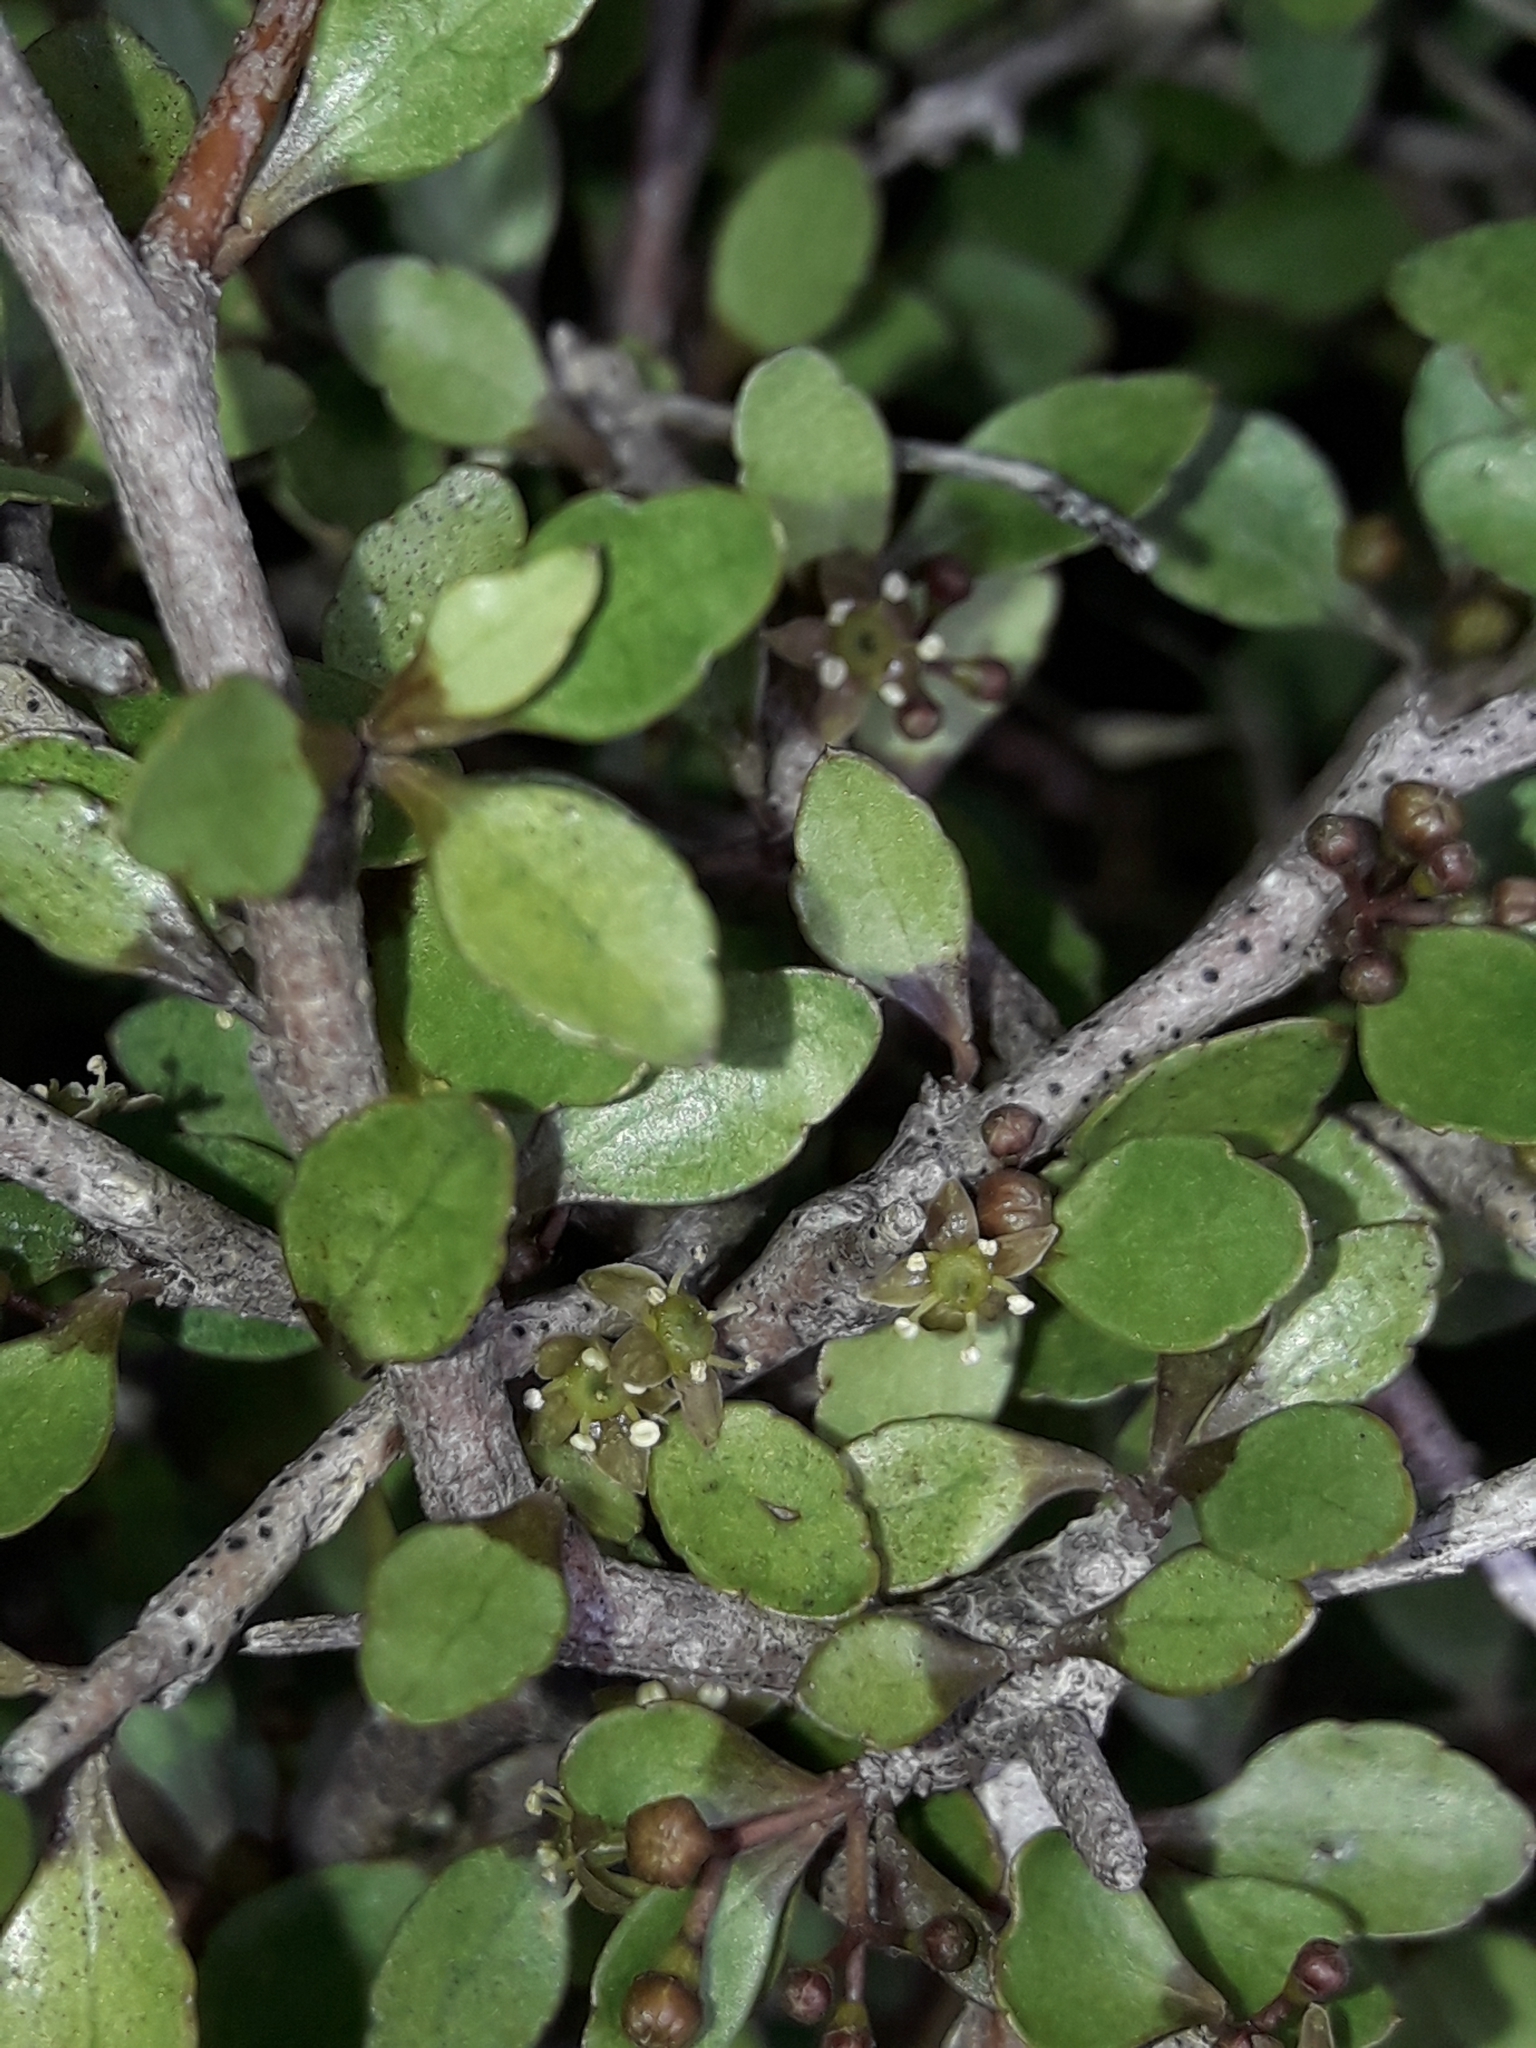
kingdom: Plantae
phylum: Tracheophyta
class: Magnoliopsida
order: Apiales
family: Araliaceae
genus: Raukaua
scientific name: Raukaua anomalus
